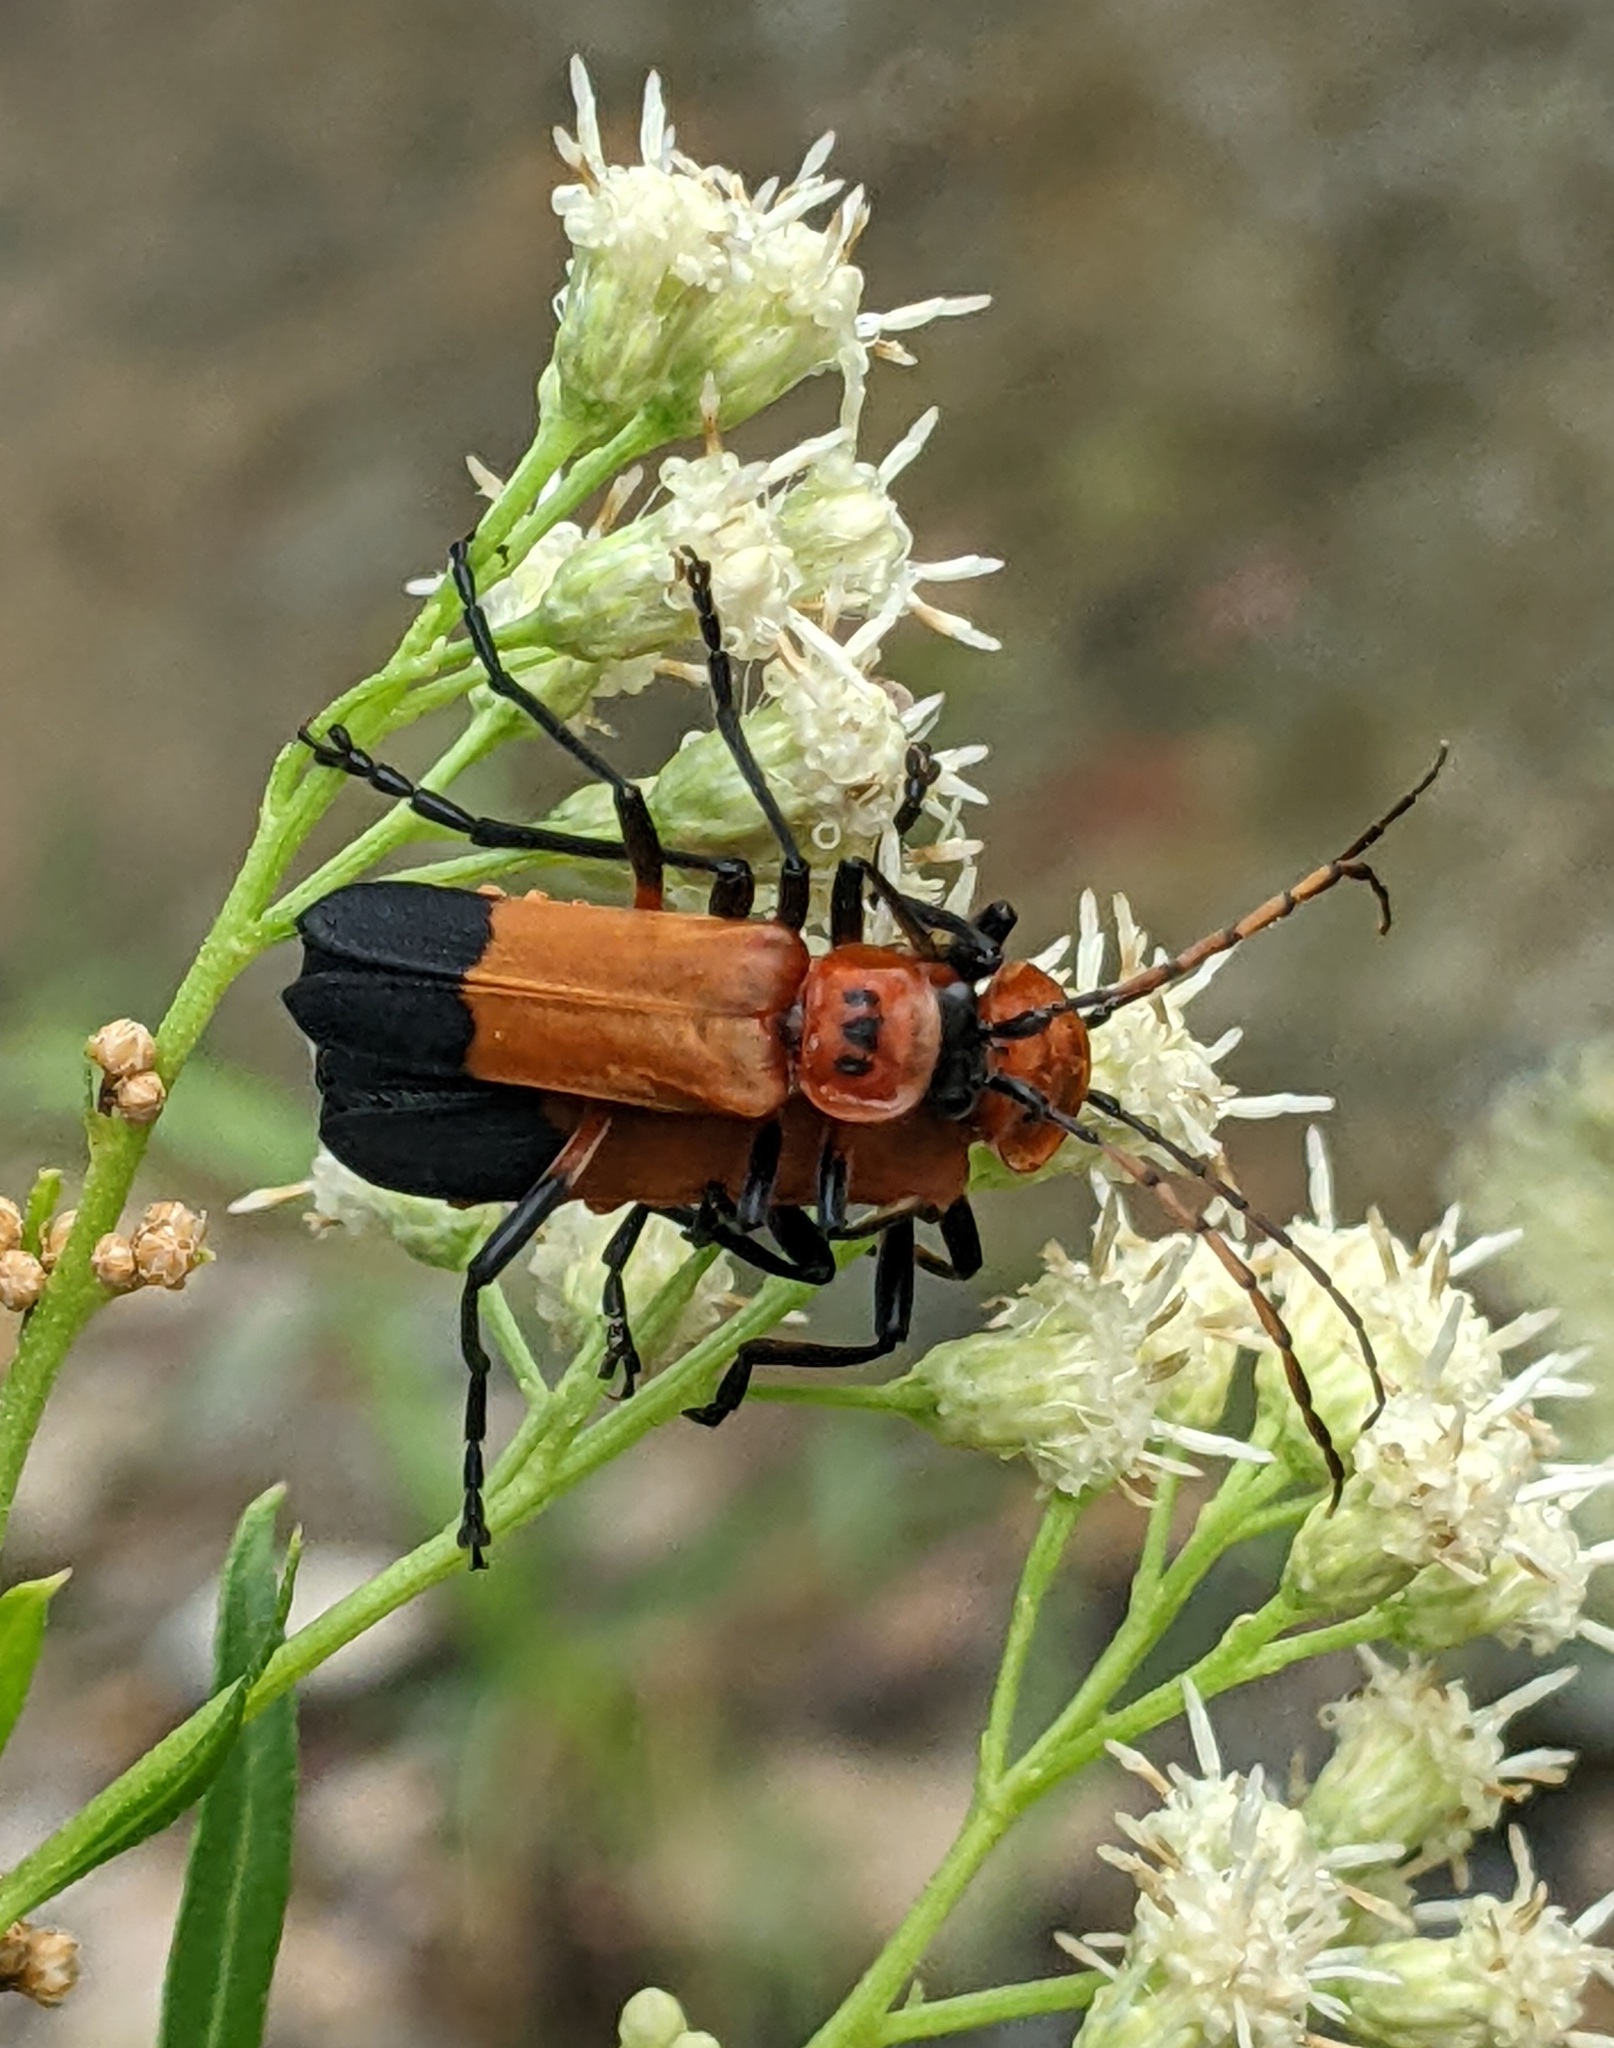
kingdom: Animalia
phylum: Arthropoda
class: Insecta
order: Coleoptera
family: Cantharidae
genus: Chauliognathus
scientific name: Chauliognathus profundus
